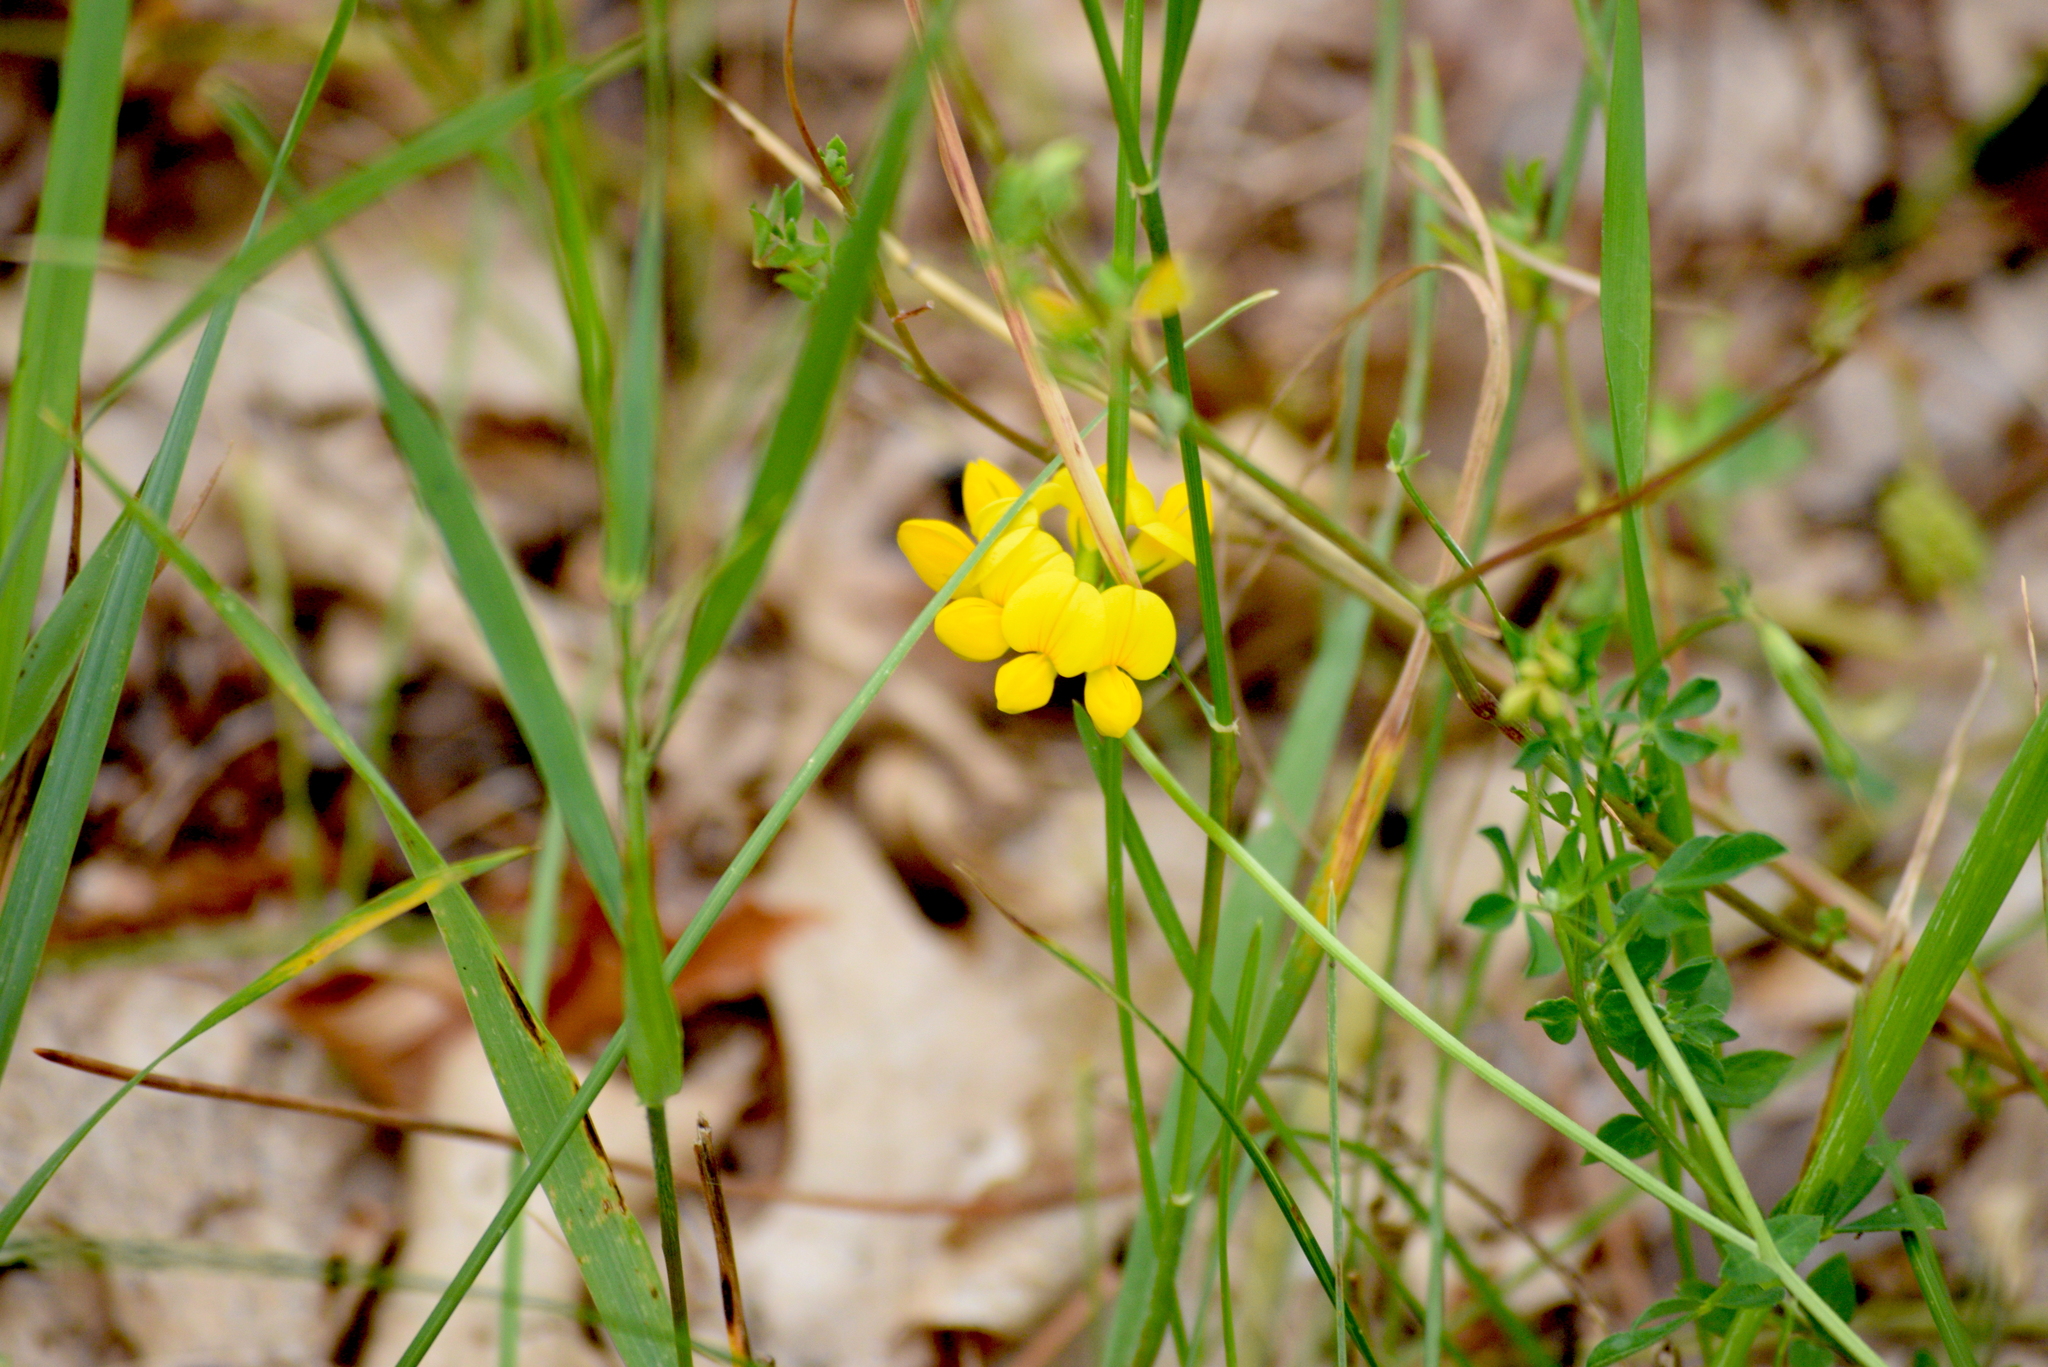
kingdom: Plantae
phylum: Tracheophyta
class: Magnoliopsida
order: Fabales
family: Fabaceae
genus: Lotus
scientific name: Lotus corniculatus
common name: Common bird's-foot-trefoil
